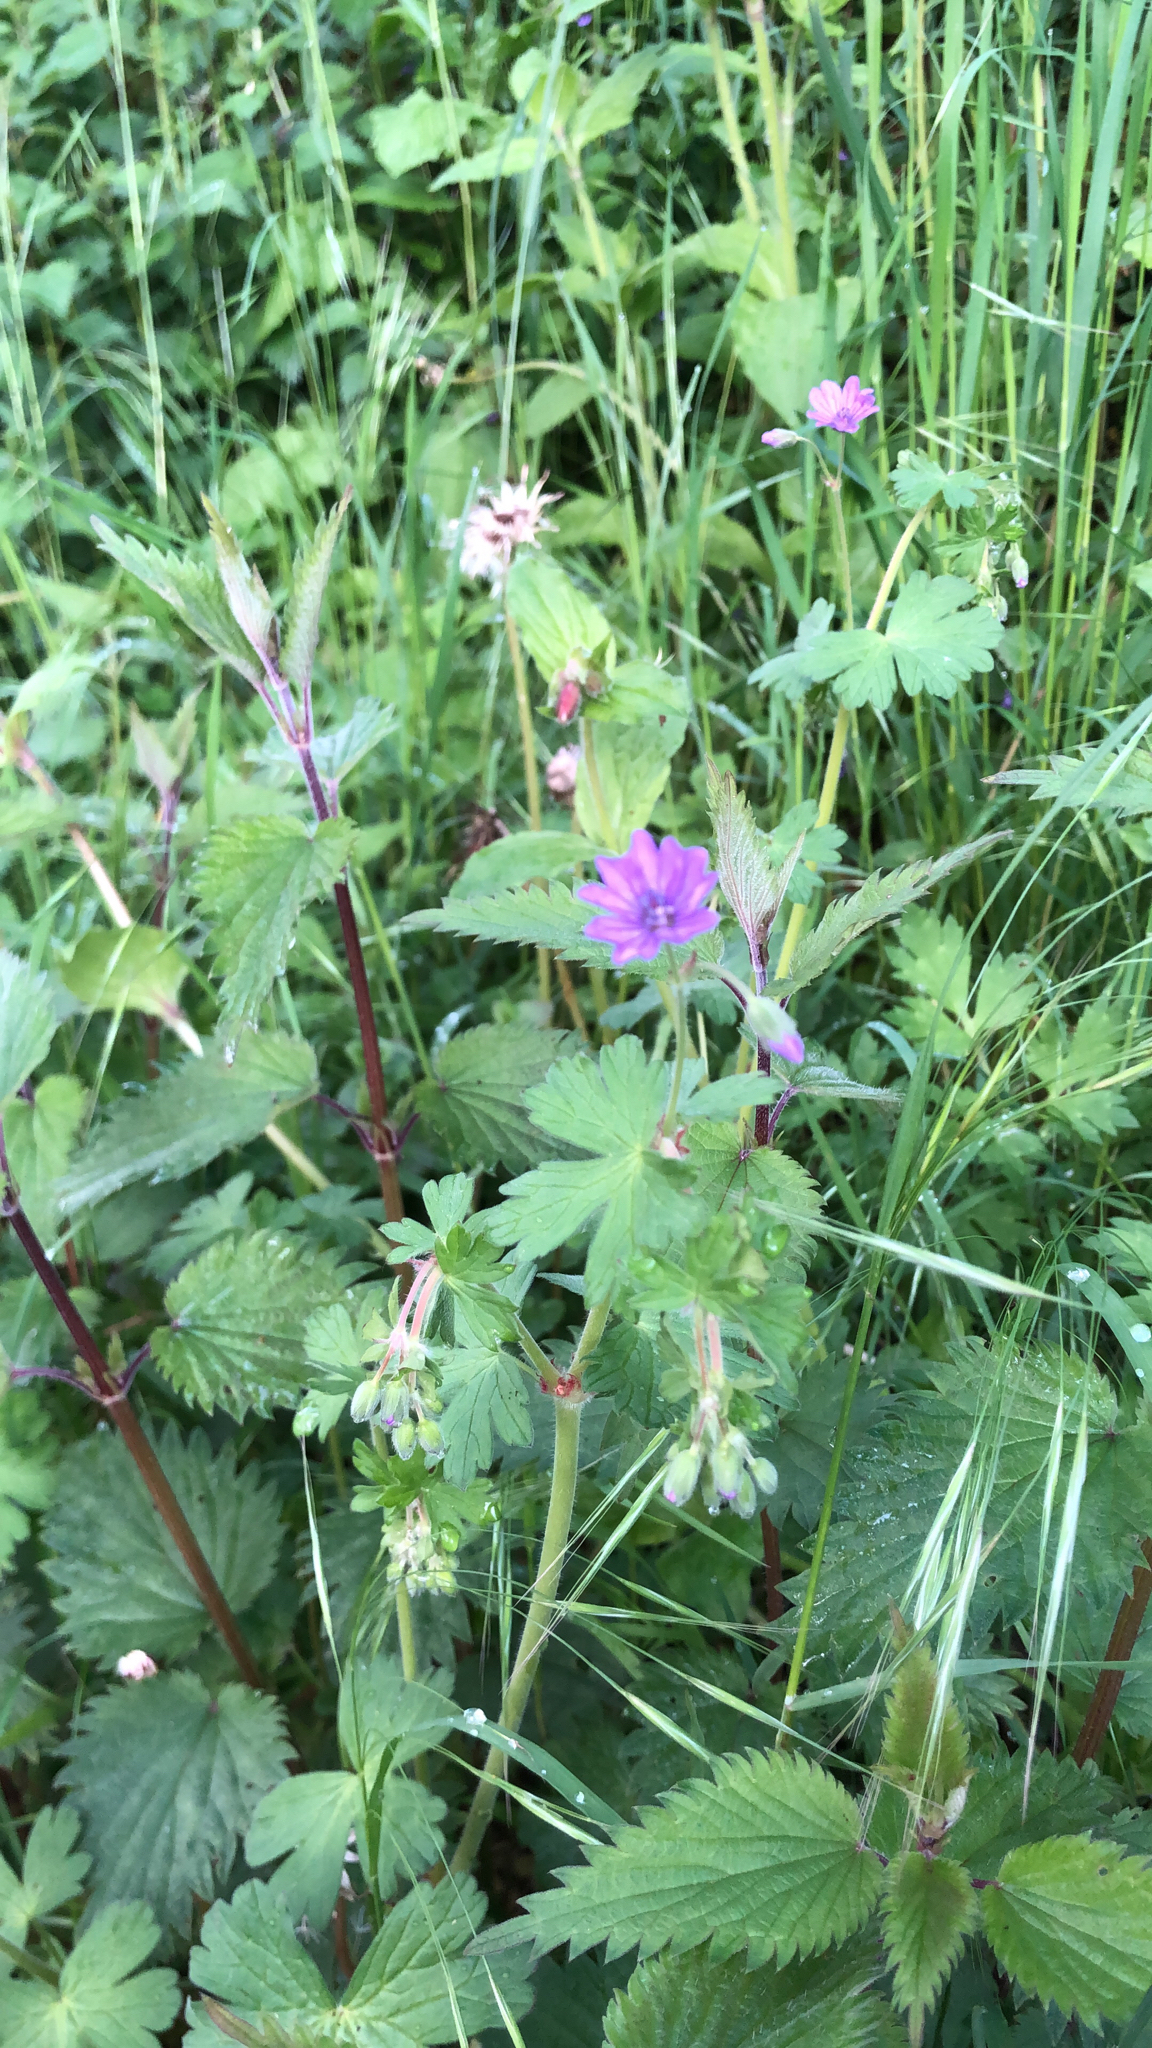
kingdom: Plantae
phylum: Tracheophyta
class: Magnoliopsida
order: Geraniales
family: Geraniaceae
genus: Geranium
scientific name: Geranium pyrenaicum
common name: Hedgerow crane's-bill
